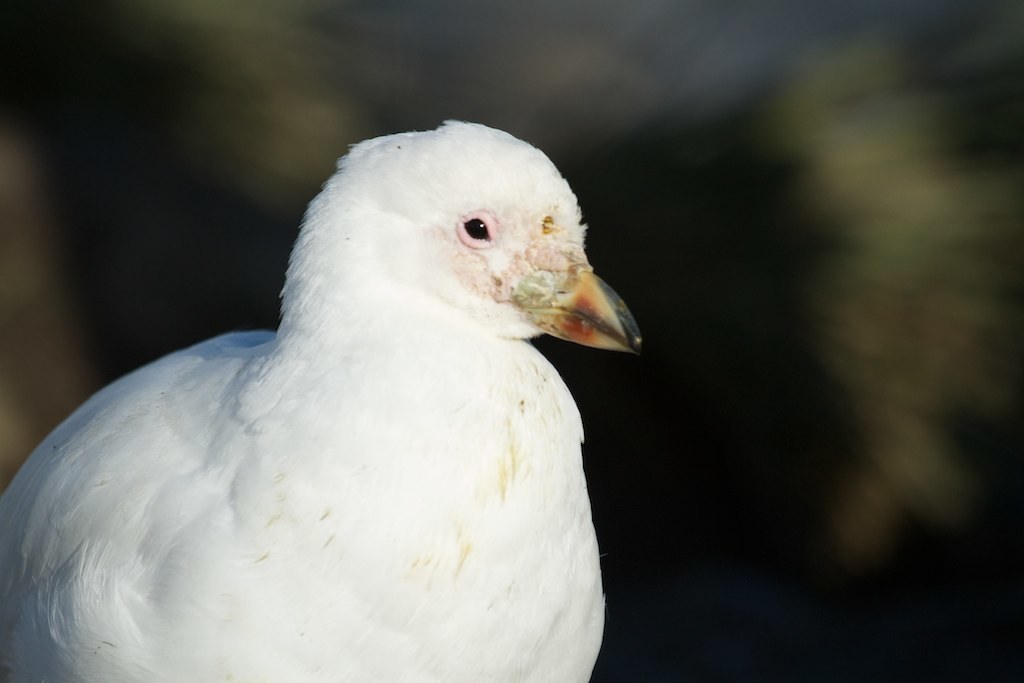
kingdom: Animalia
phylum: Chordata
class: Aves
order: Charadriiformes
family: Chionidae
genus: Chionis
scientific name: Chionis albus
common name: Snowy sheathbill
